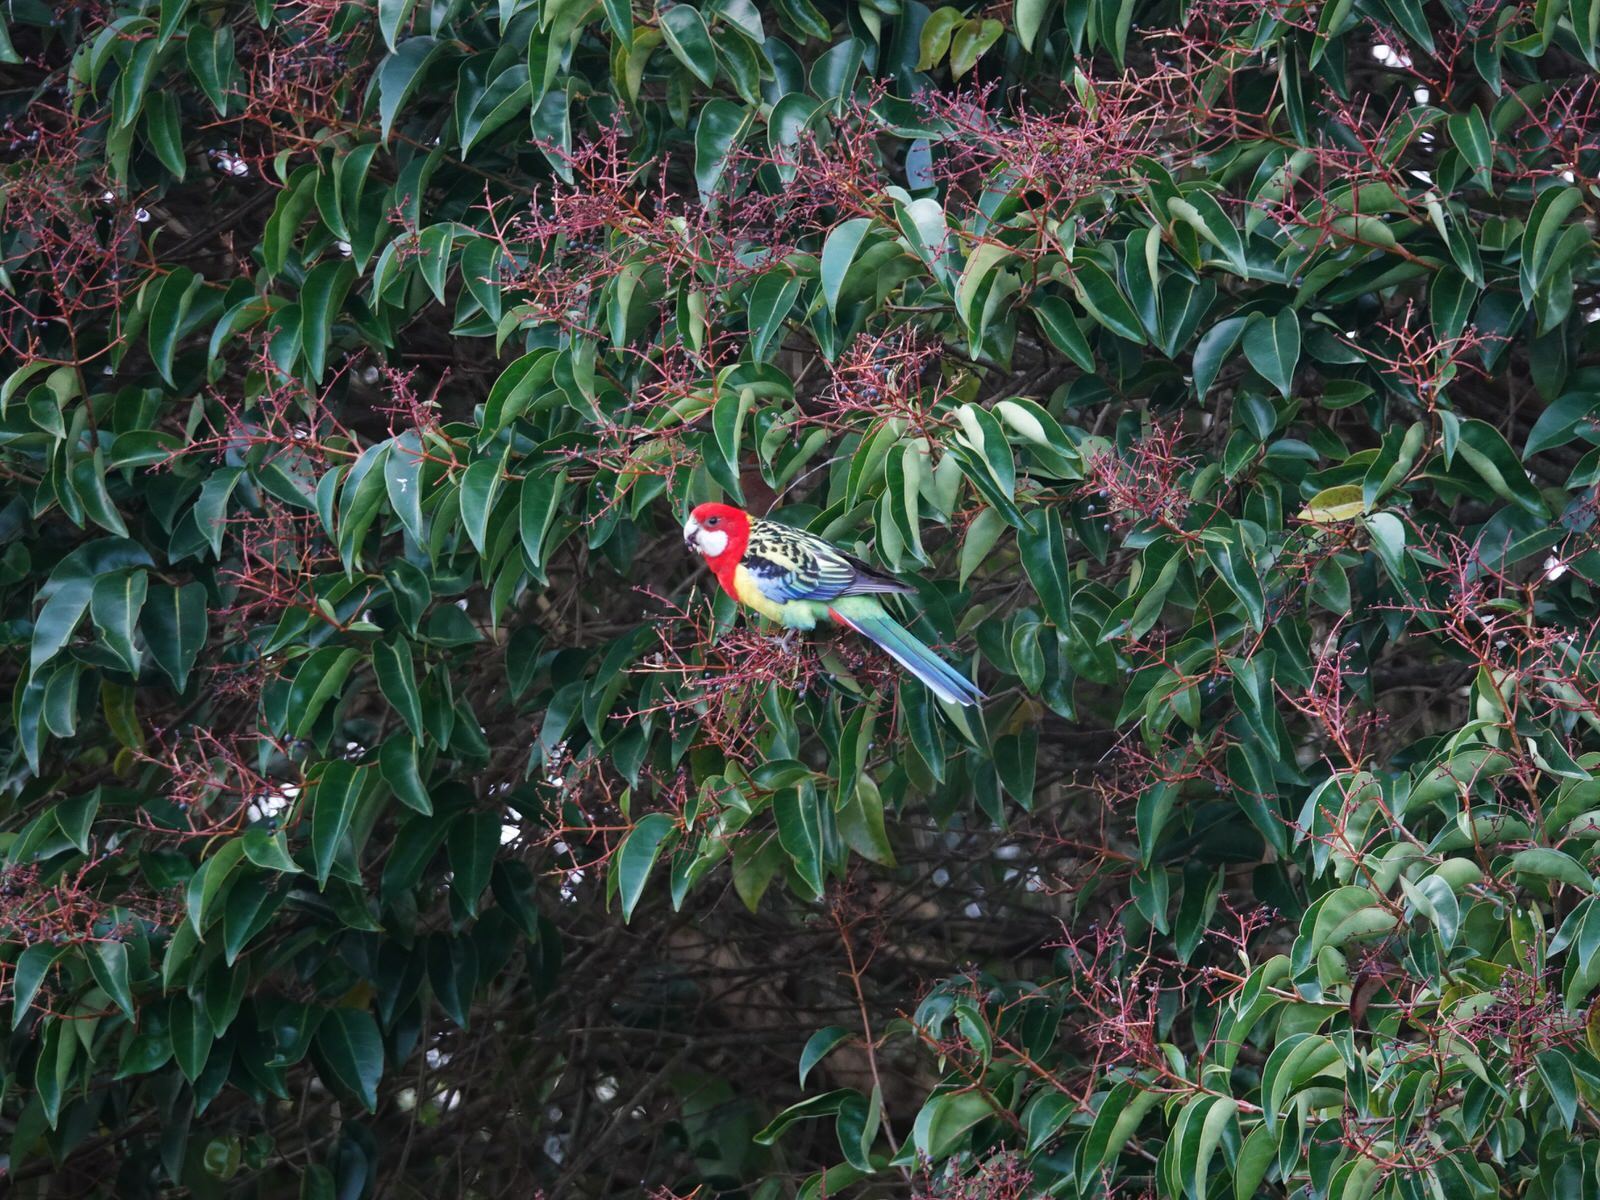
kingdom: Animalia
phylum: Chordata
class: Aves
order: Psittaciformes
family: Psittacidae
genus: Platycercus
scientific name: Platycercus eximius
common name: Eastern rosella
